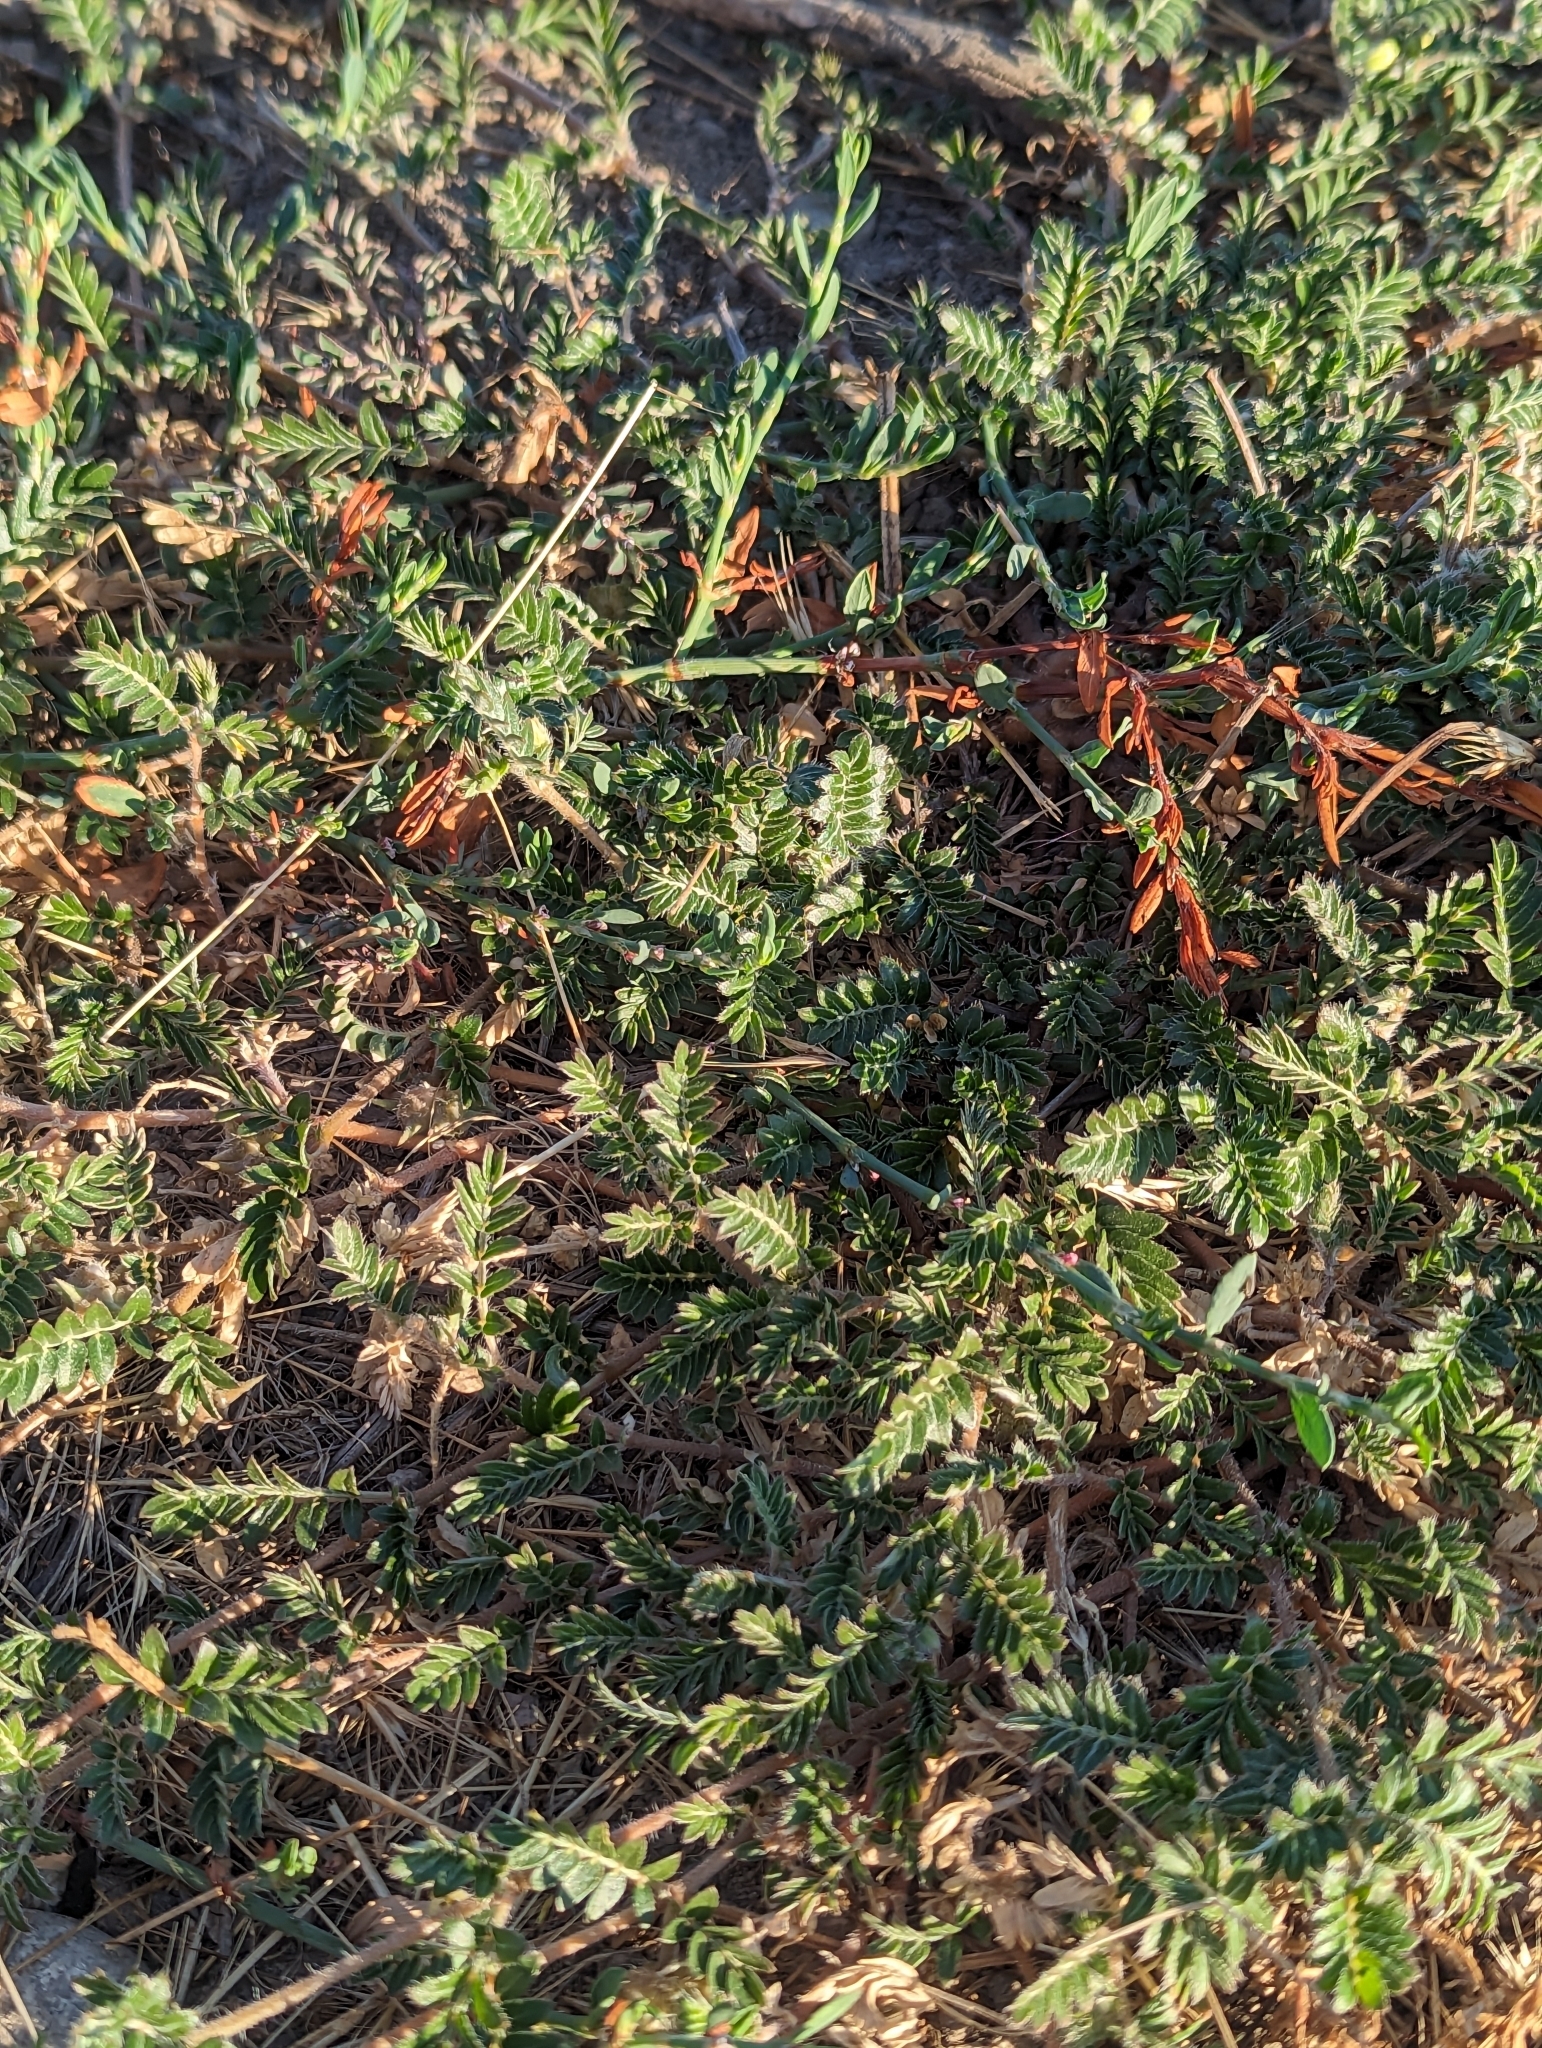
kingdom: Plantae
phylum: Tracheophyta
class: Magnoliopsida
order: Zygophyllales
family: Zygophyllaceae
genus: Tribulus
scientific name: Tribulus terrestris
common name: Puncturevine
